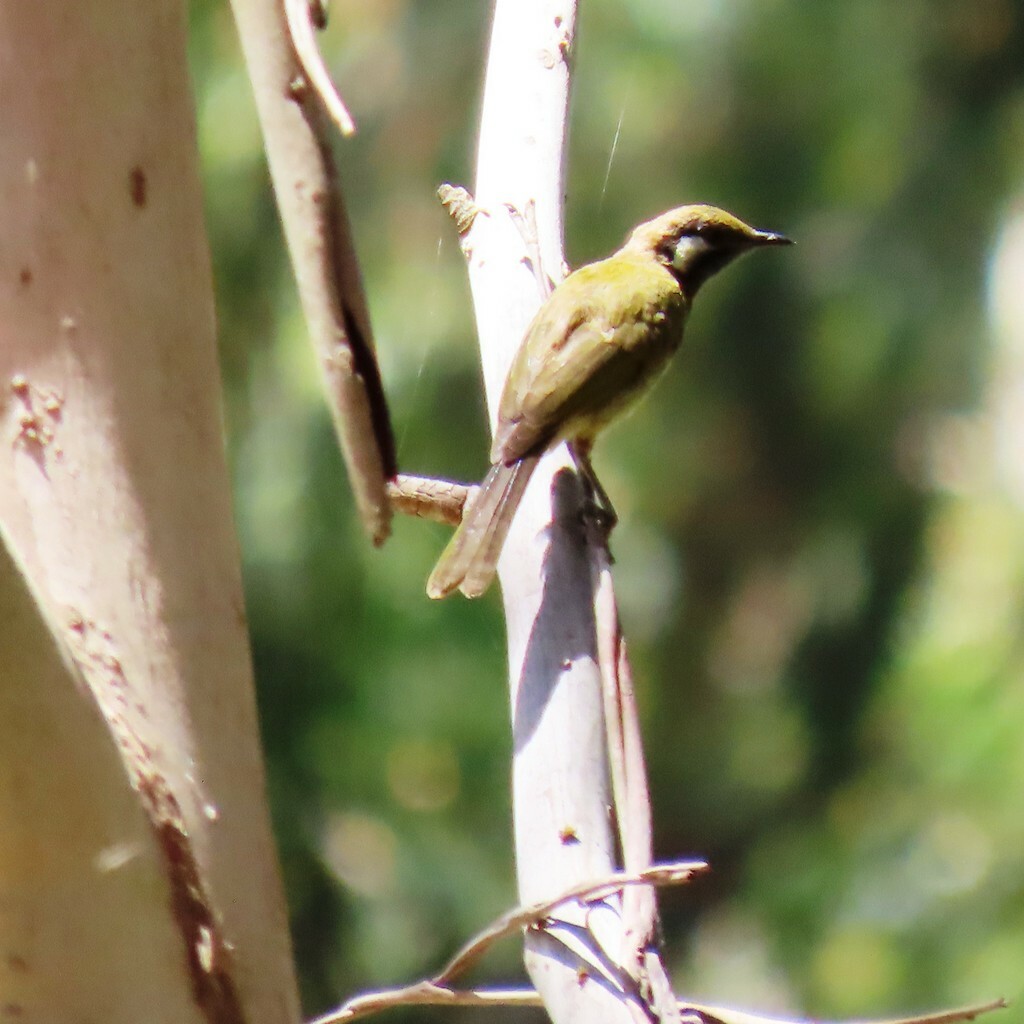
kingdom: Animalia
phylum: Chordata
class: Aves
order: Passeriformes
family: Meliphagidae
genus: Nesoptilotis
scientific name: Nesoptilotis leucotis
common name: White-eared honeyeater
